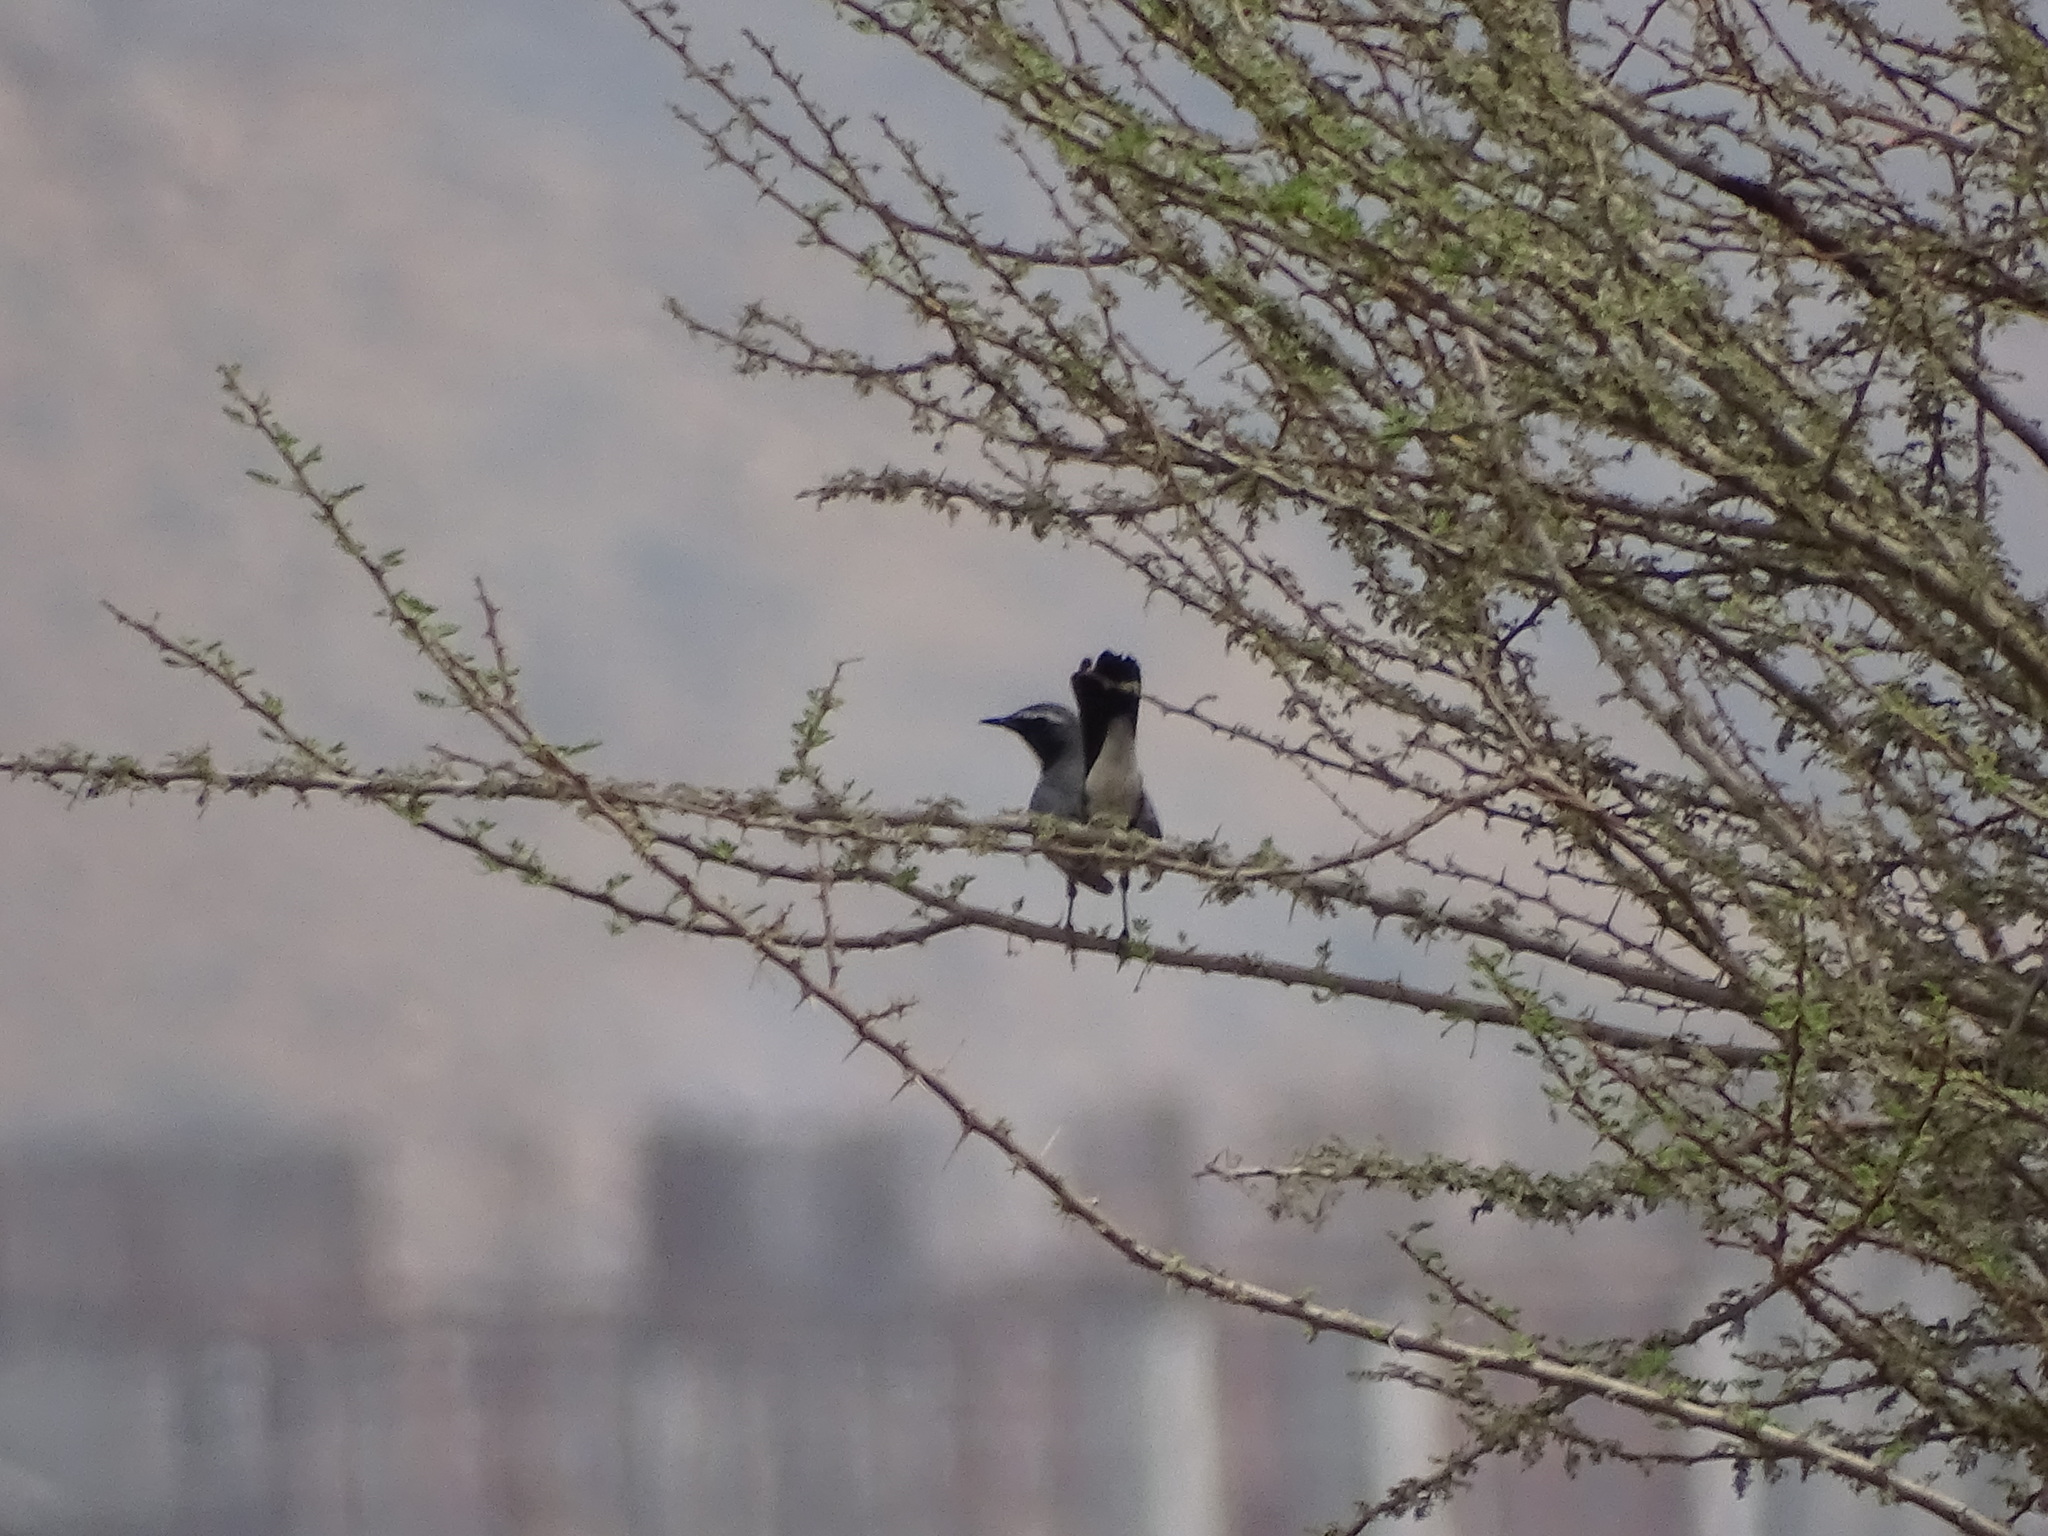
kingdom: Animalia
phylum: Chordata
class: Aves
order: Passeriformes
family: Muscicapidae
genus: Irania
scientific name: Irania gutturalis
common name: White-throated robin
